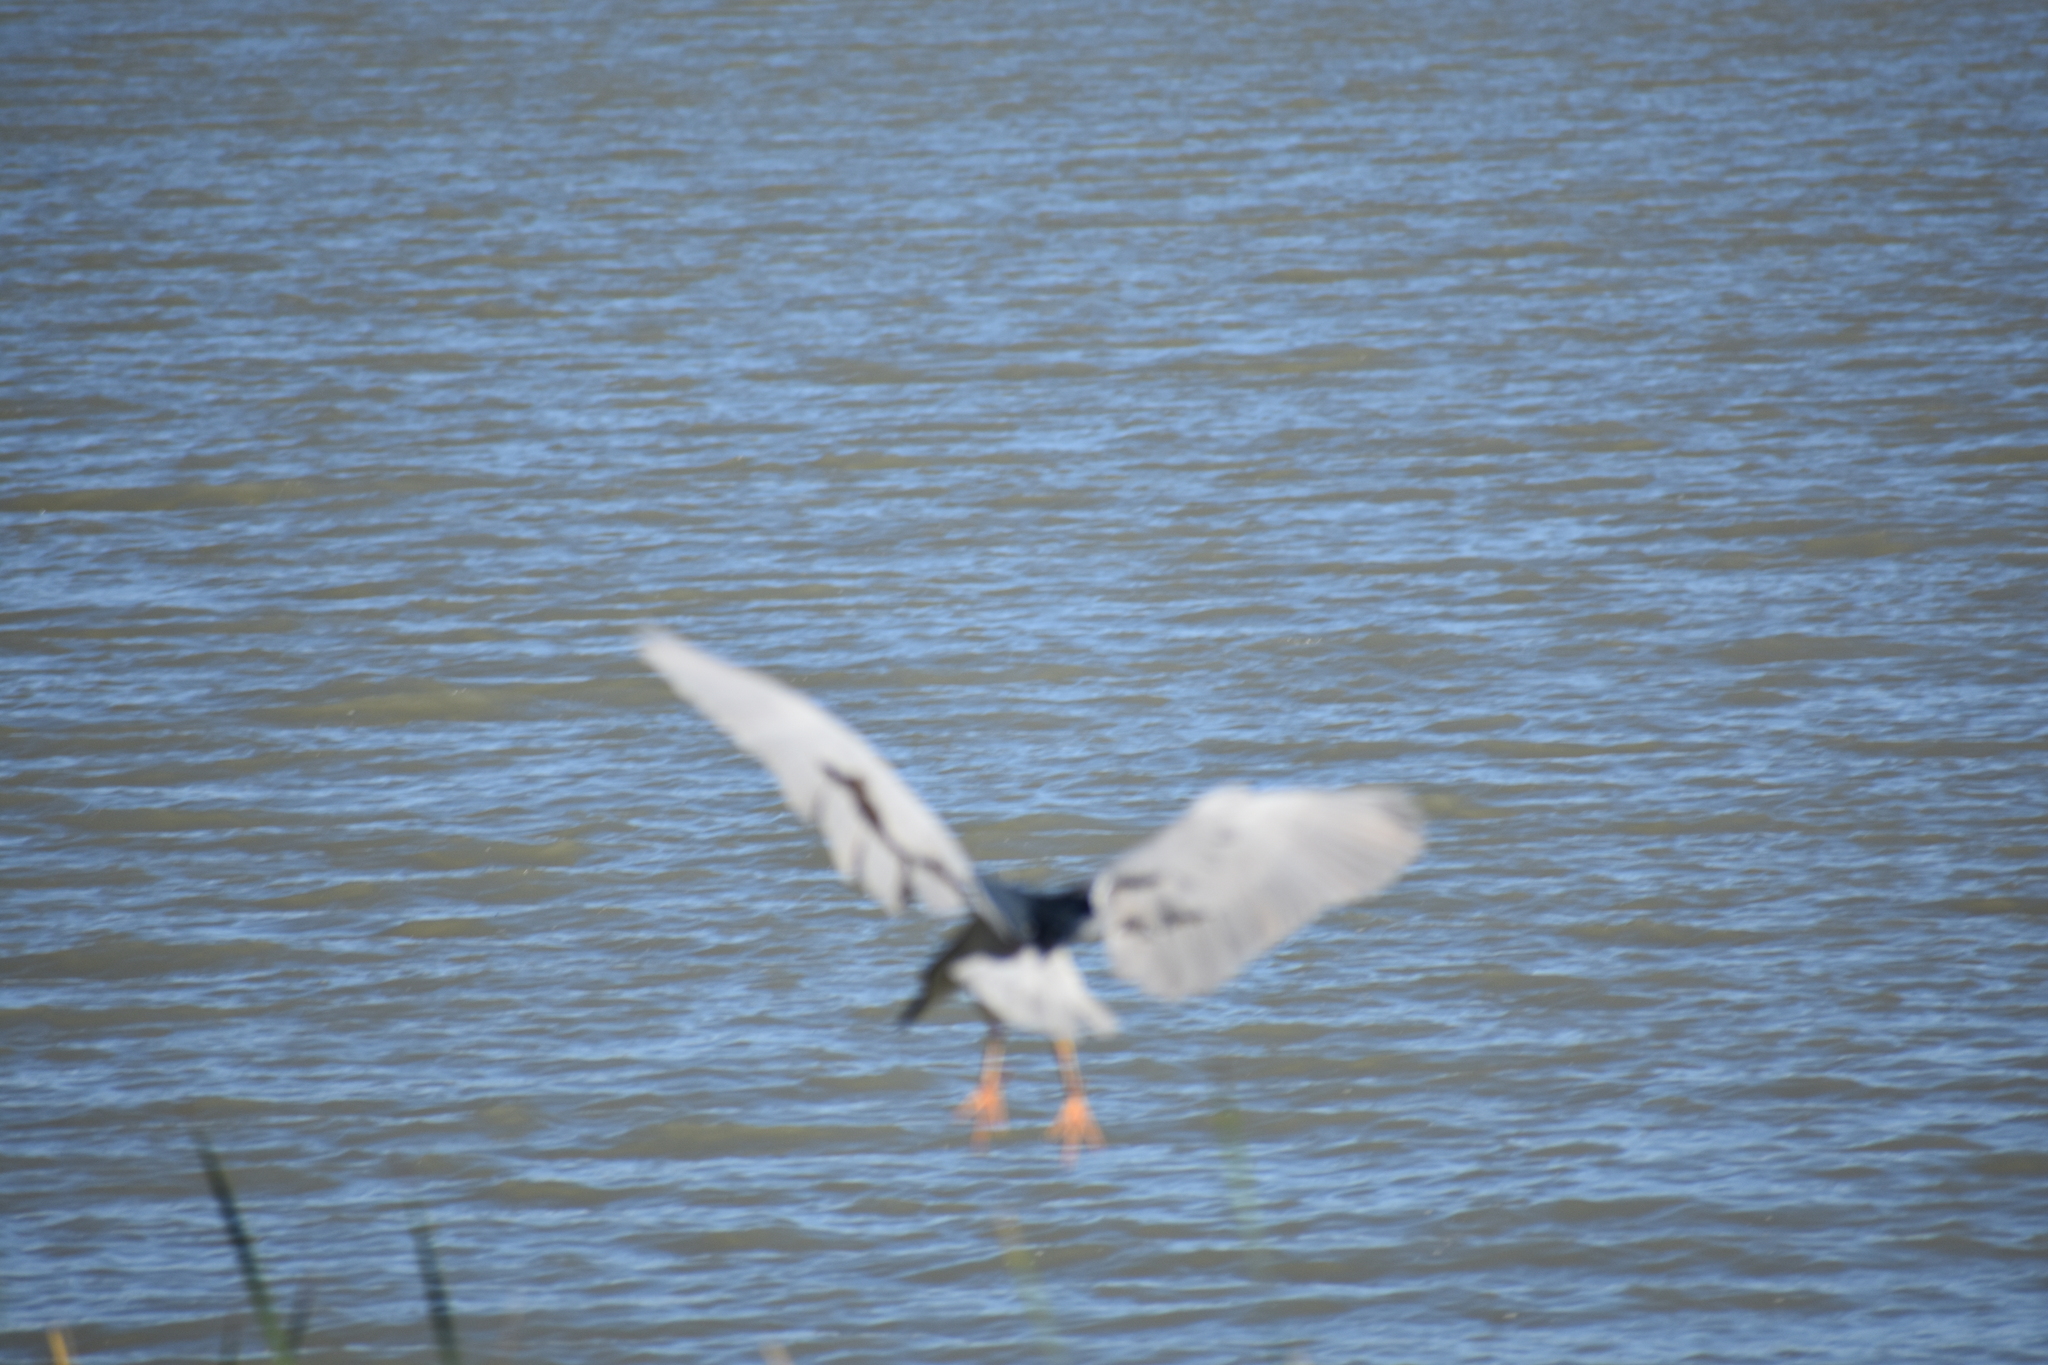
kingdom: Animalia
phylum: Chordata
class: Aves
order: Pelecaniformes
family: Ardeidae
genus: Nycticorax
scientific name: Nycticorax nycticorax
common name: Black-crowned night heron
